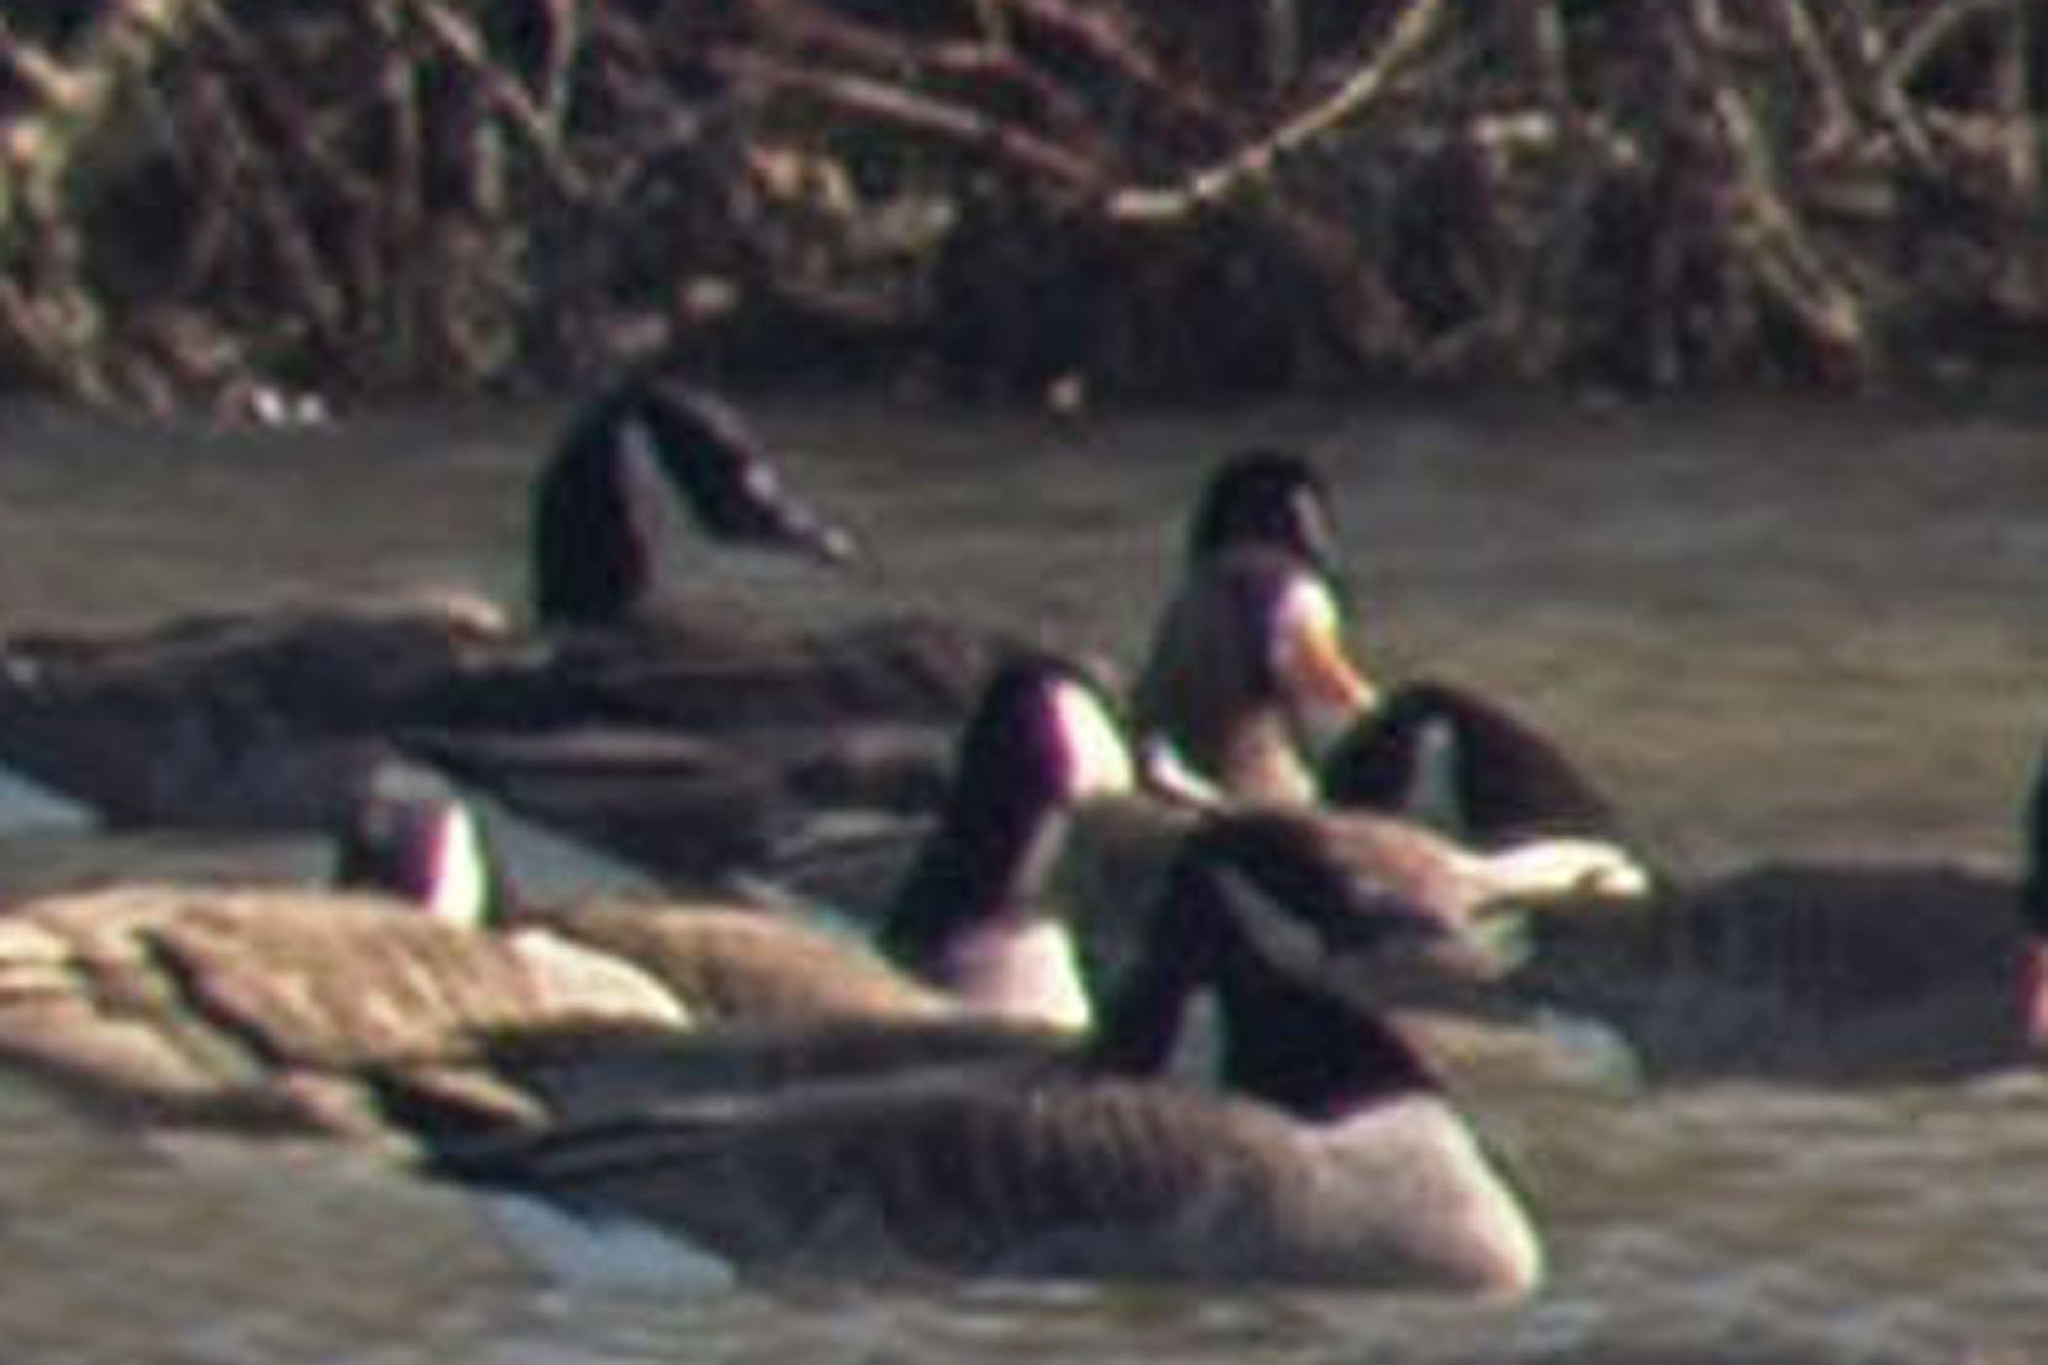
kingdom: Animalia
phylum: Chordata
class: Aves
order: Anseriformes
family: Anatidae
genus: Anser
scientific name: Anser albifrons
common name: Greater white-fronted goose
